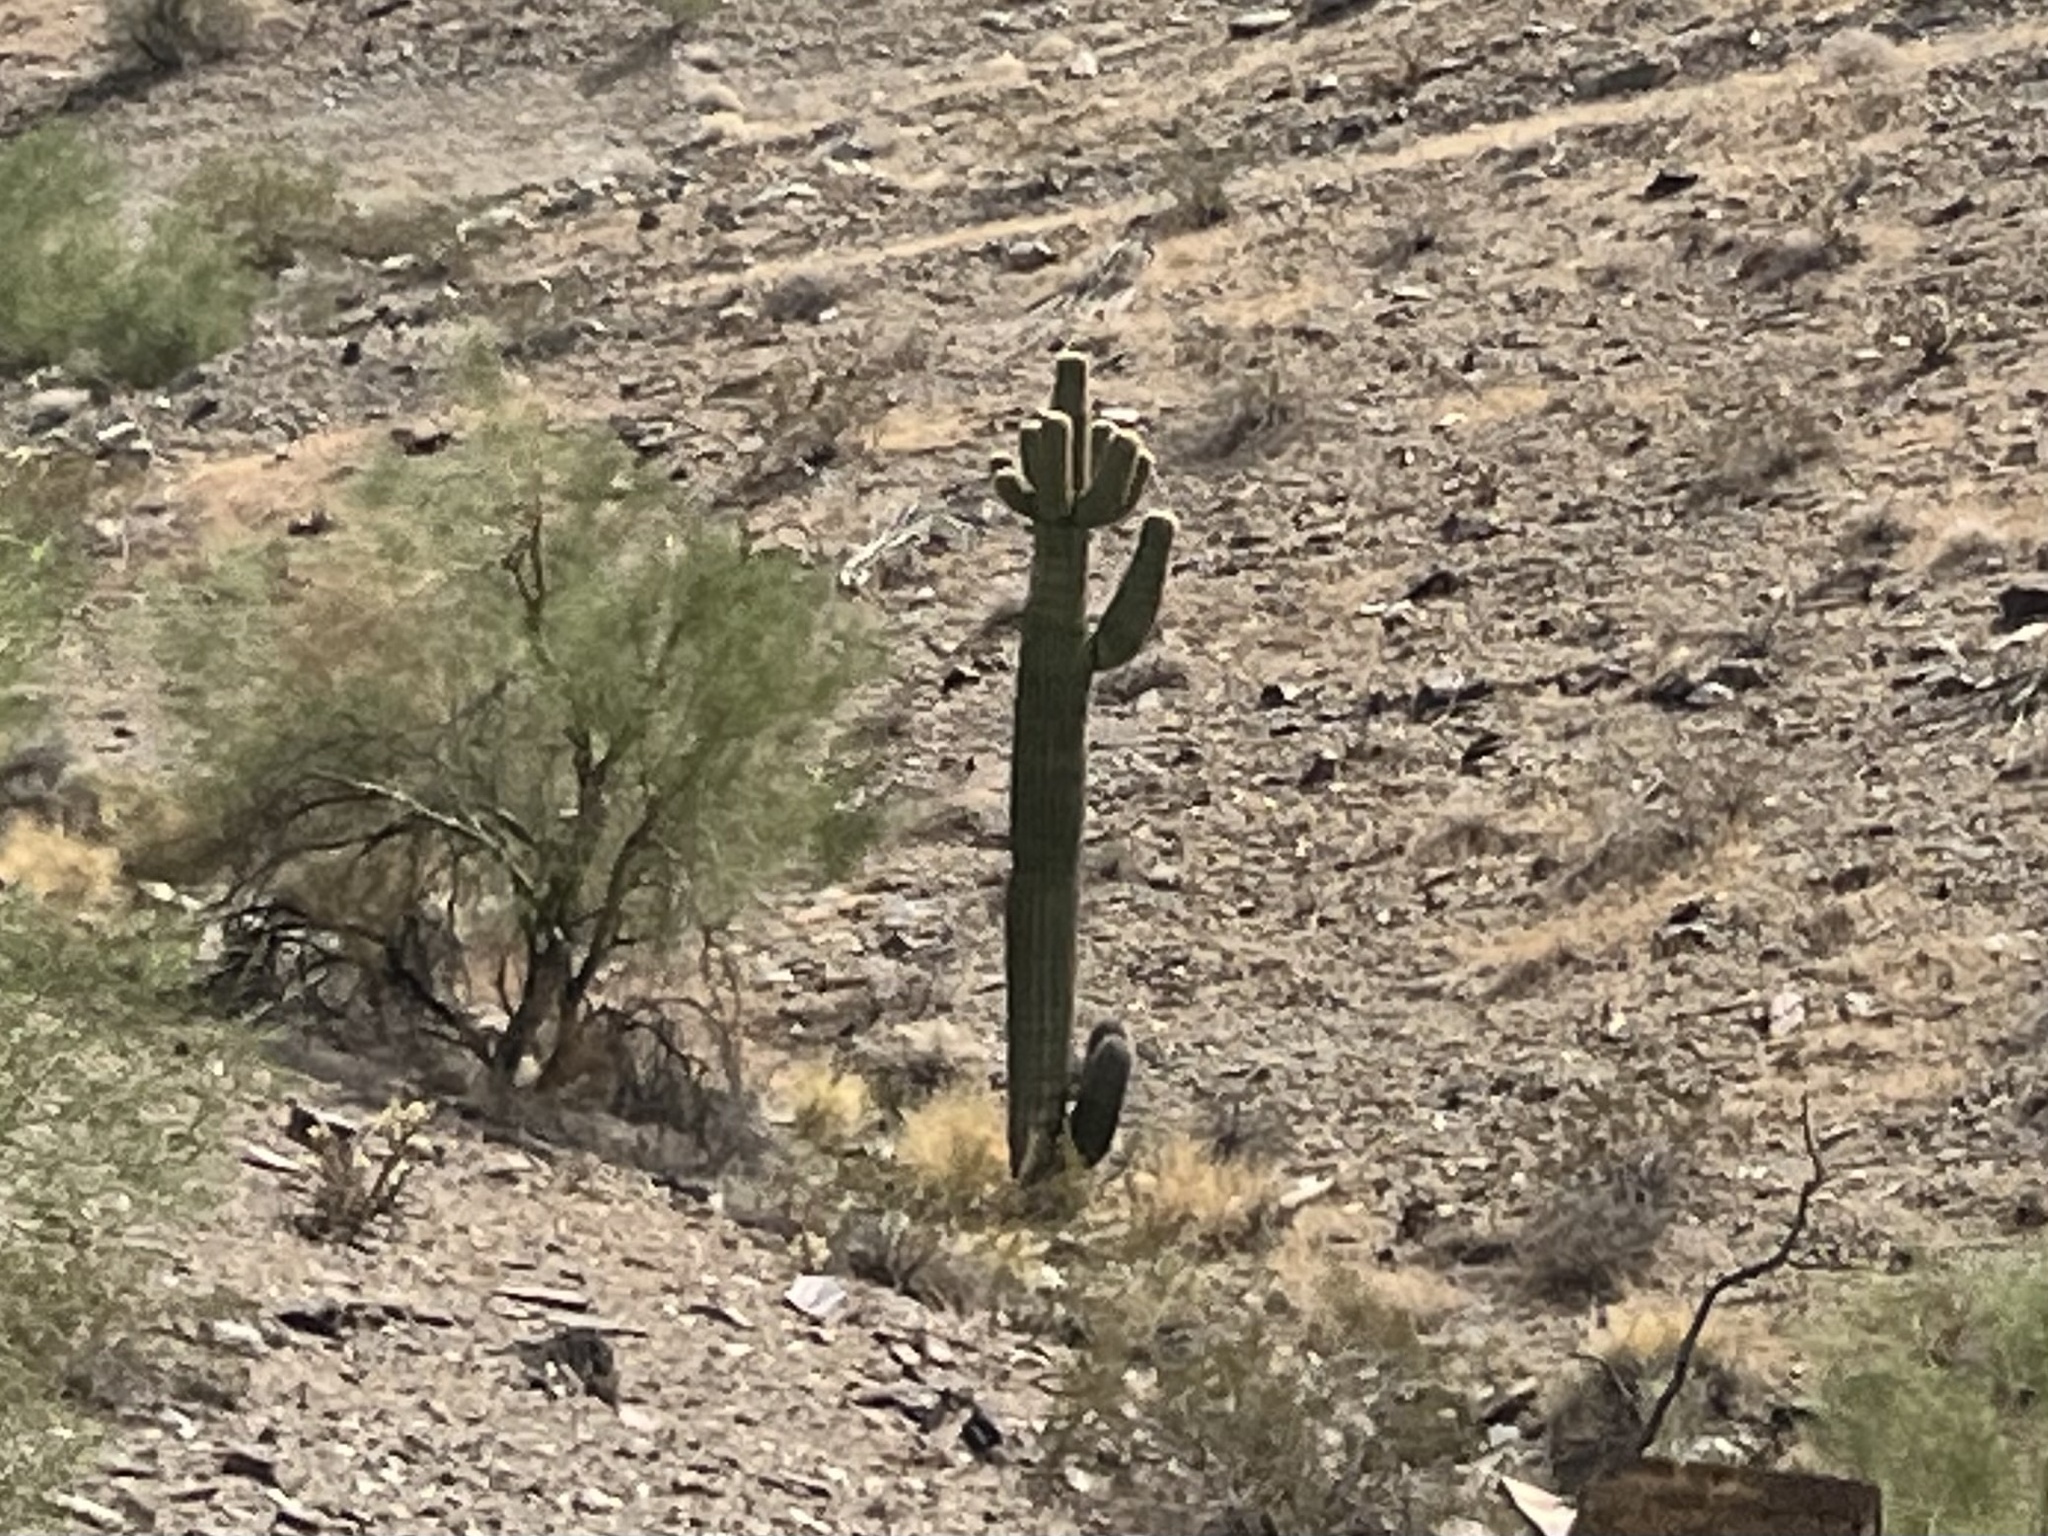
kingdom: Plantae
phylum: Tracheophyta
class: Magnoliopsida
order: Caryophyllales
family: Cactaceae
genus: Carnegiea
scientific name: Carnegiea gigantea
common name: Saguaro
